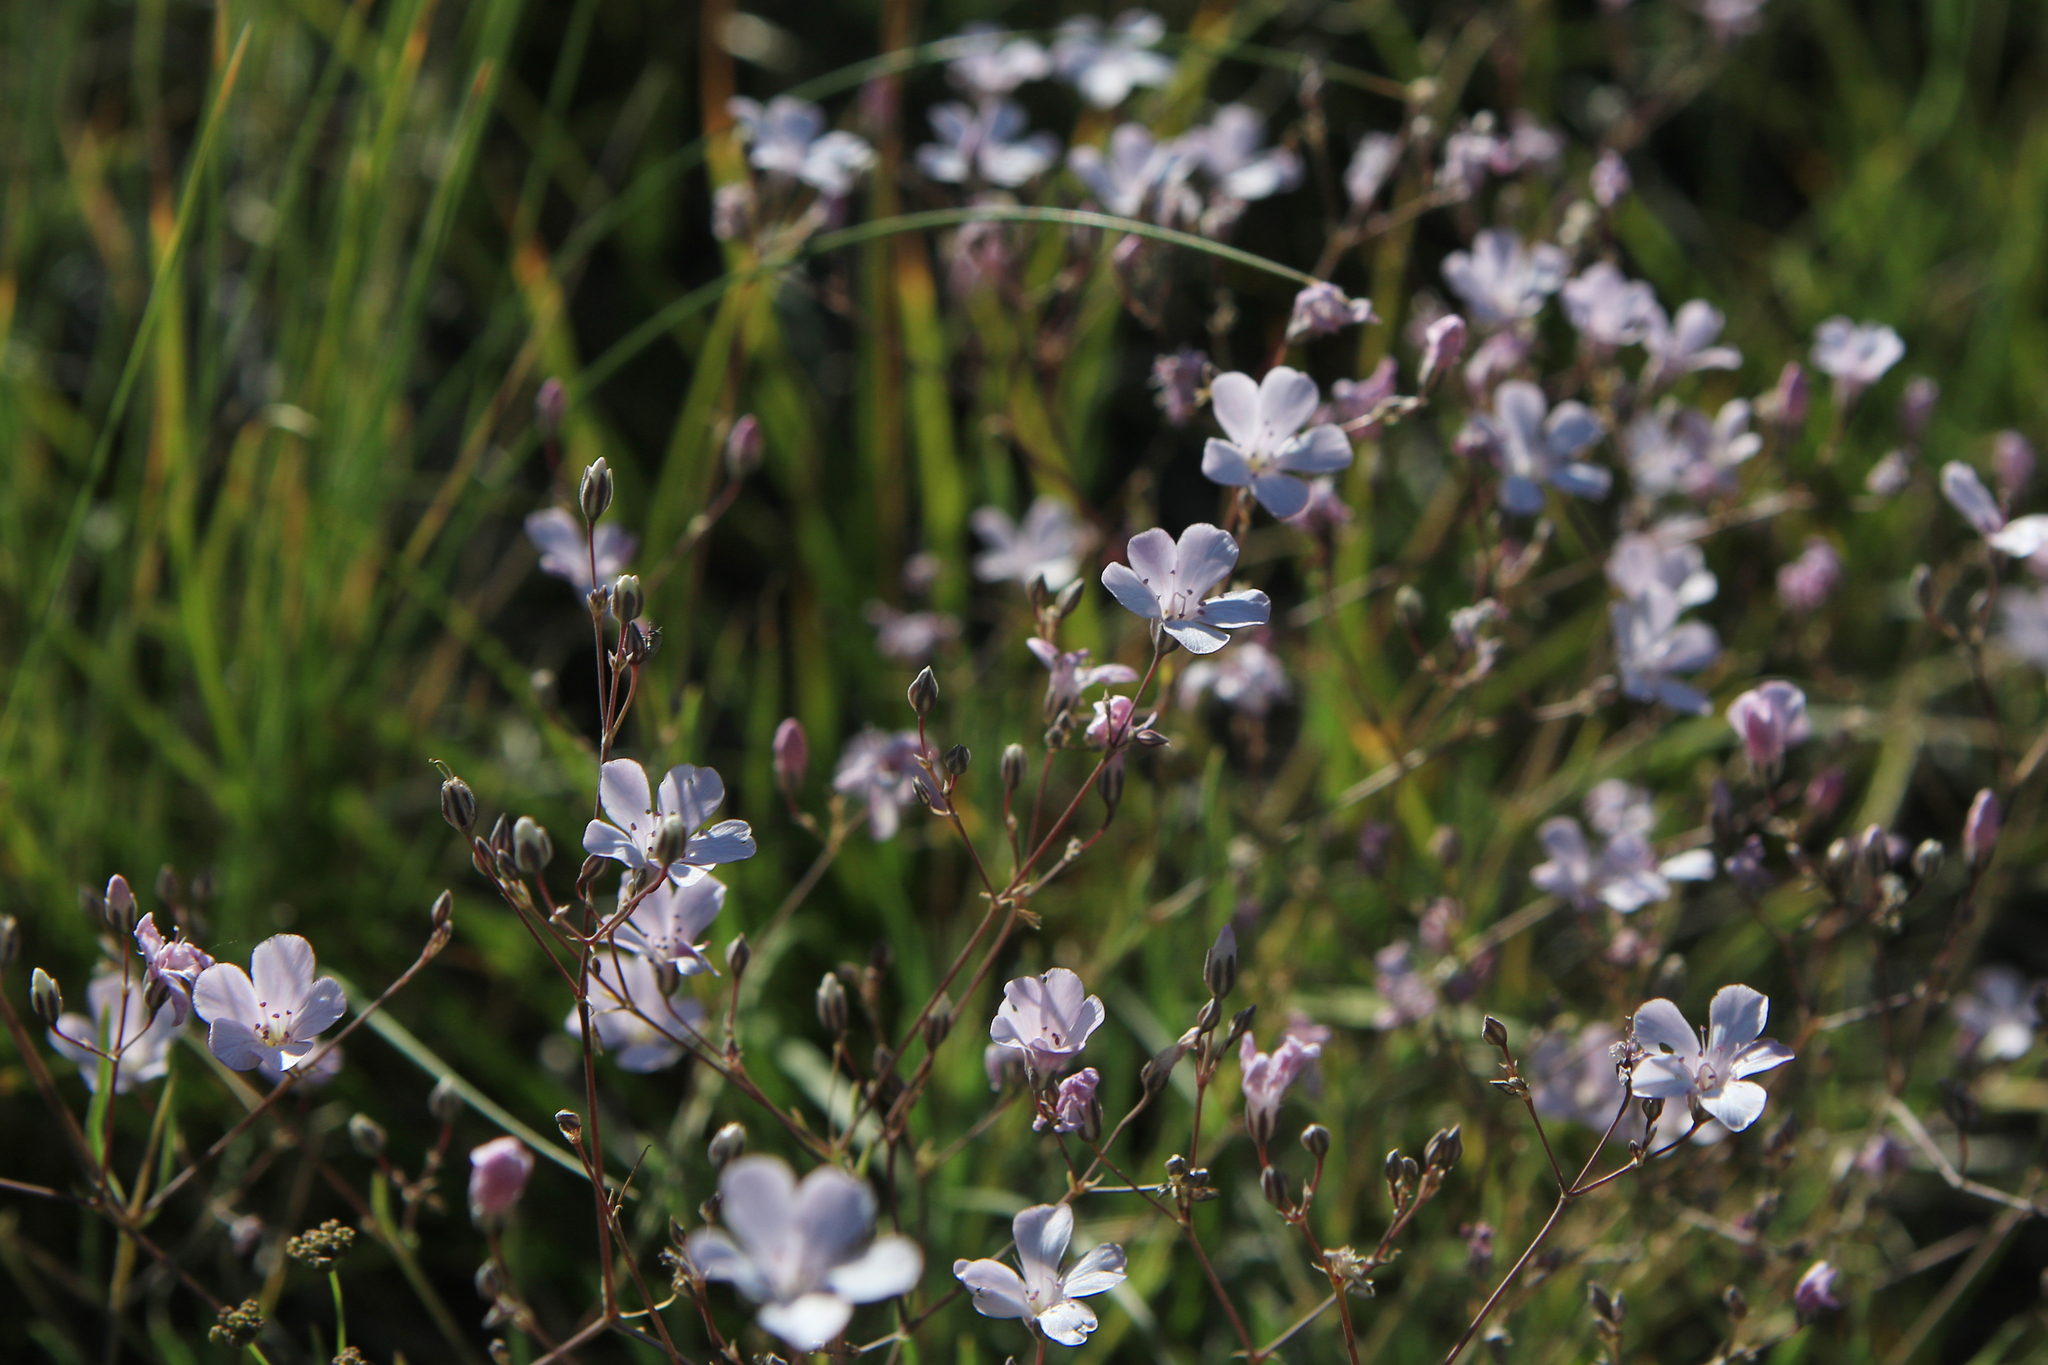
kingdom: Plantae
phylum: Tracheophyta
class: Magnoliopsida
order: Caryophyllales
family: Caryophyllaceae
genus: Gypsophila
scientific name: Gypsophila patrinii
